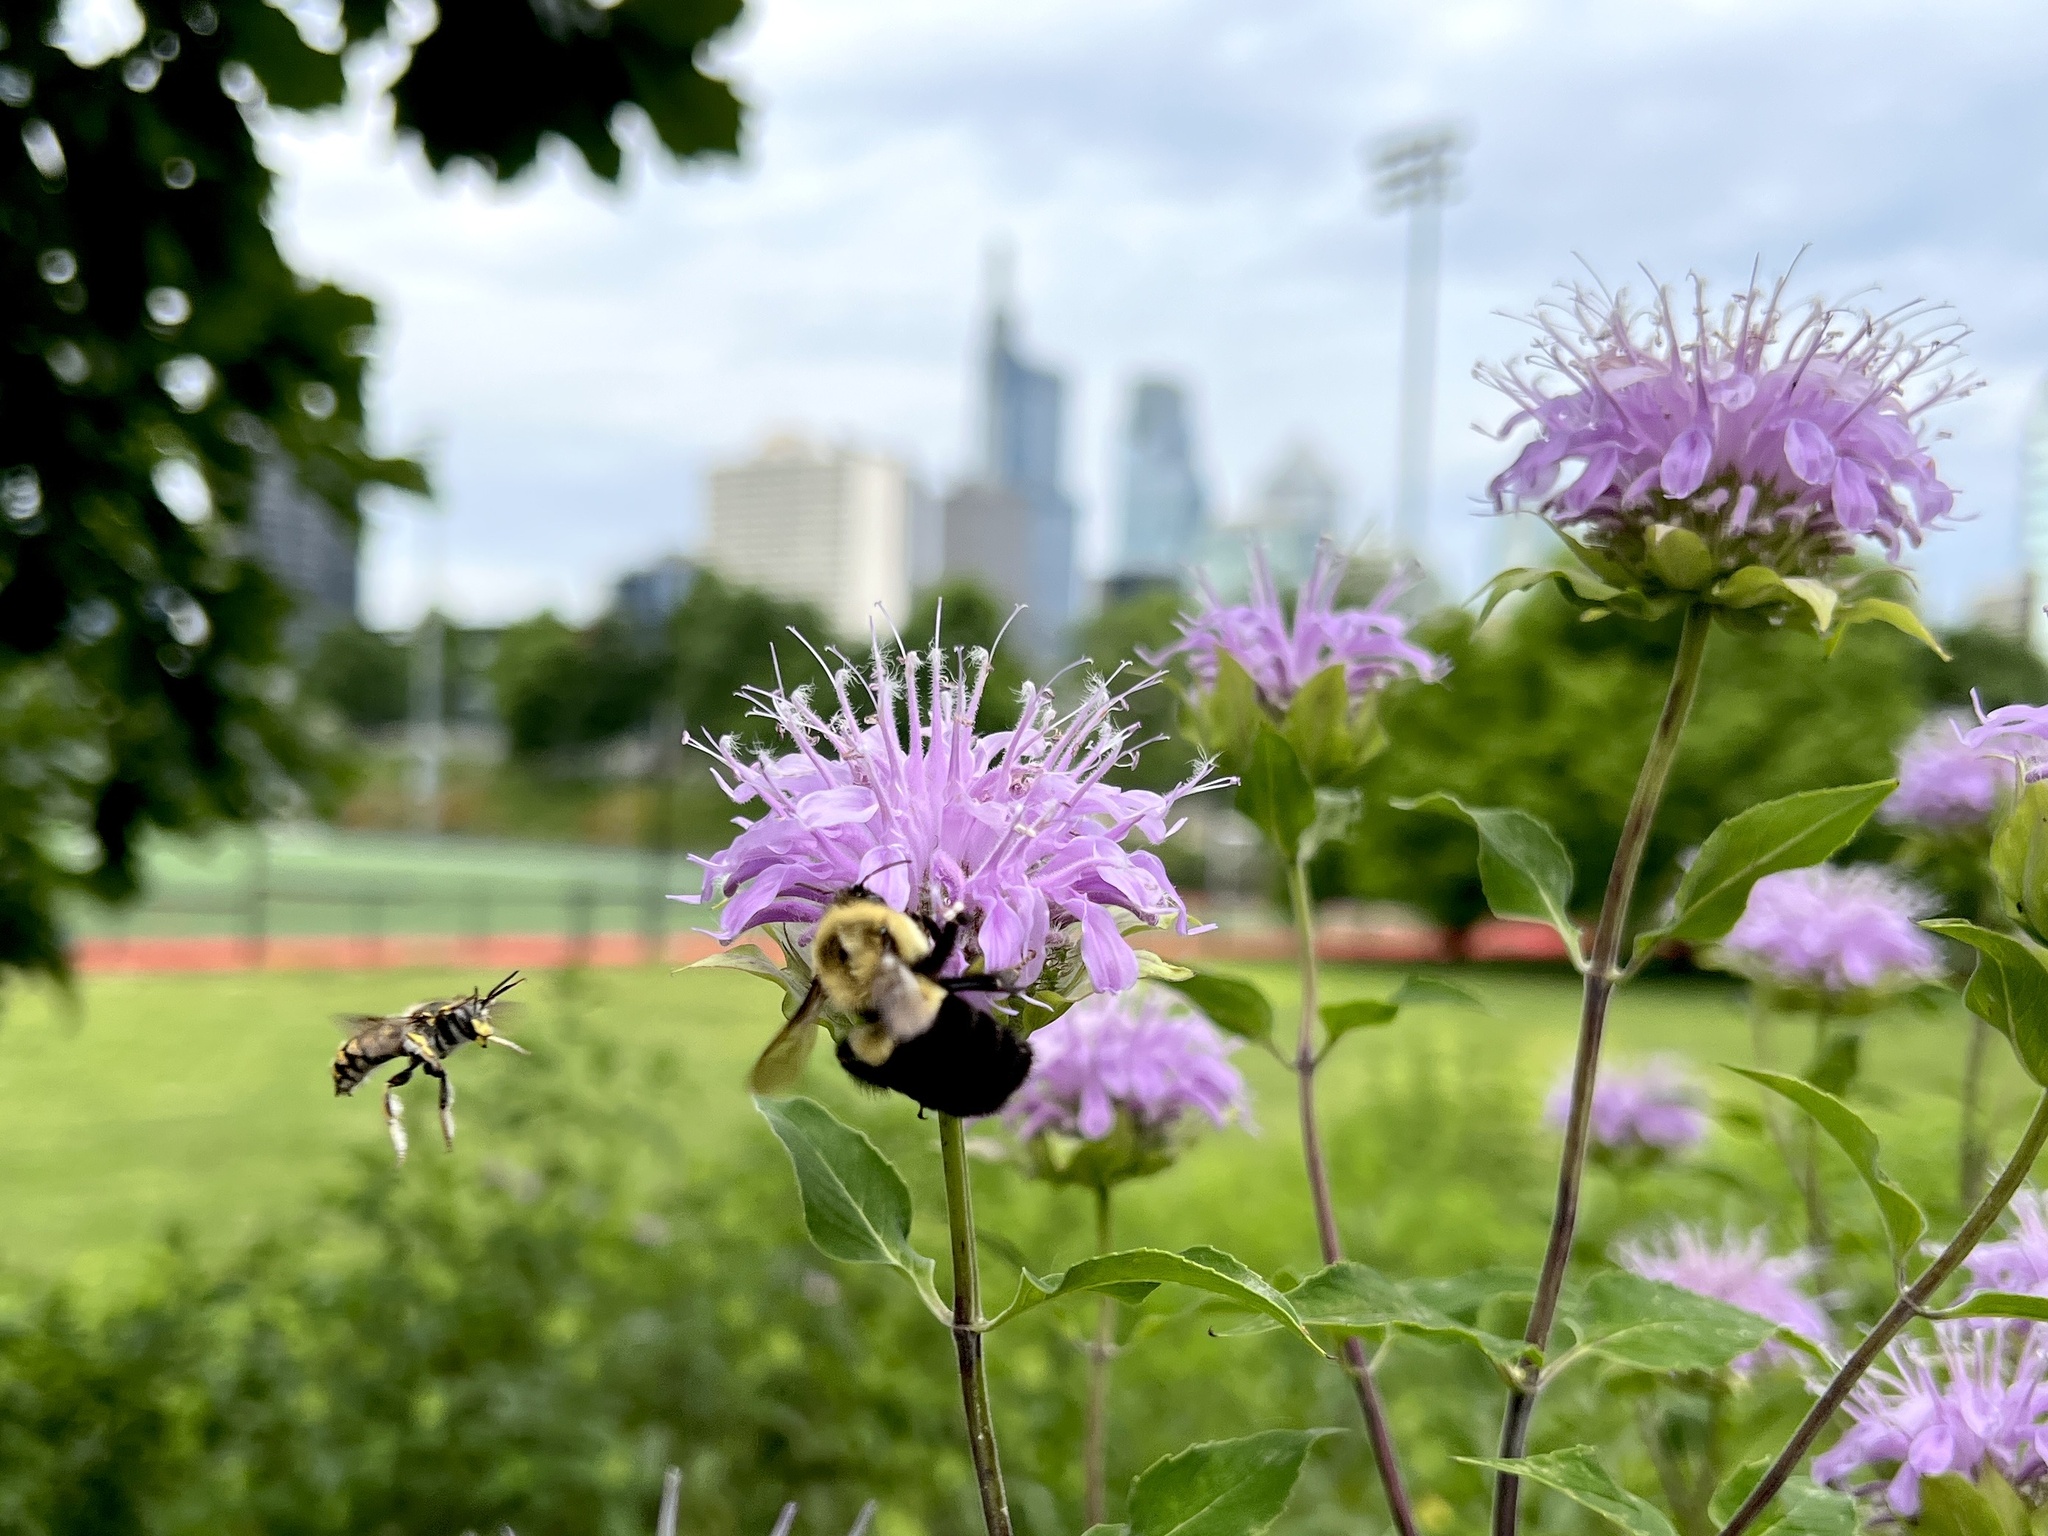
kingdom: Animalia
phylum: Arthropoda
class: Insecta
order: Hymenoptera
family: Apidae
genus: Bombus
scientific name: Bombus impatiens
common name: Common eastern bumble bee
